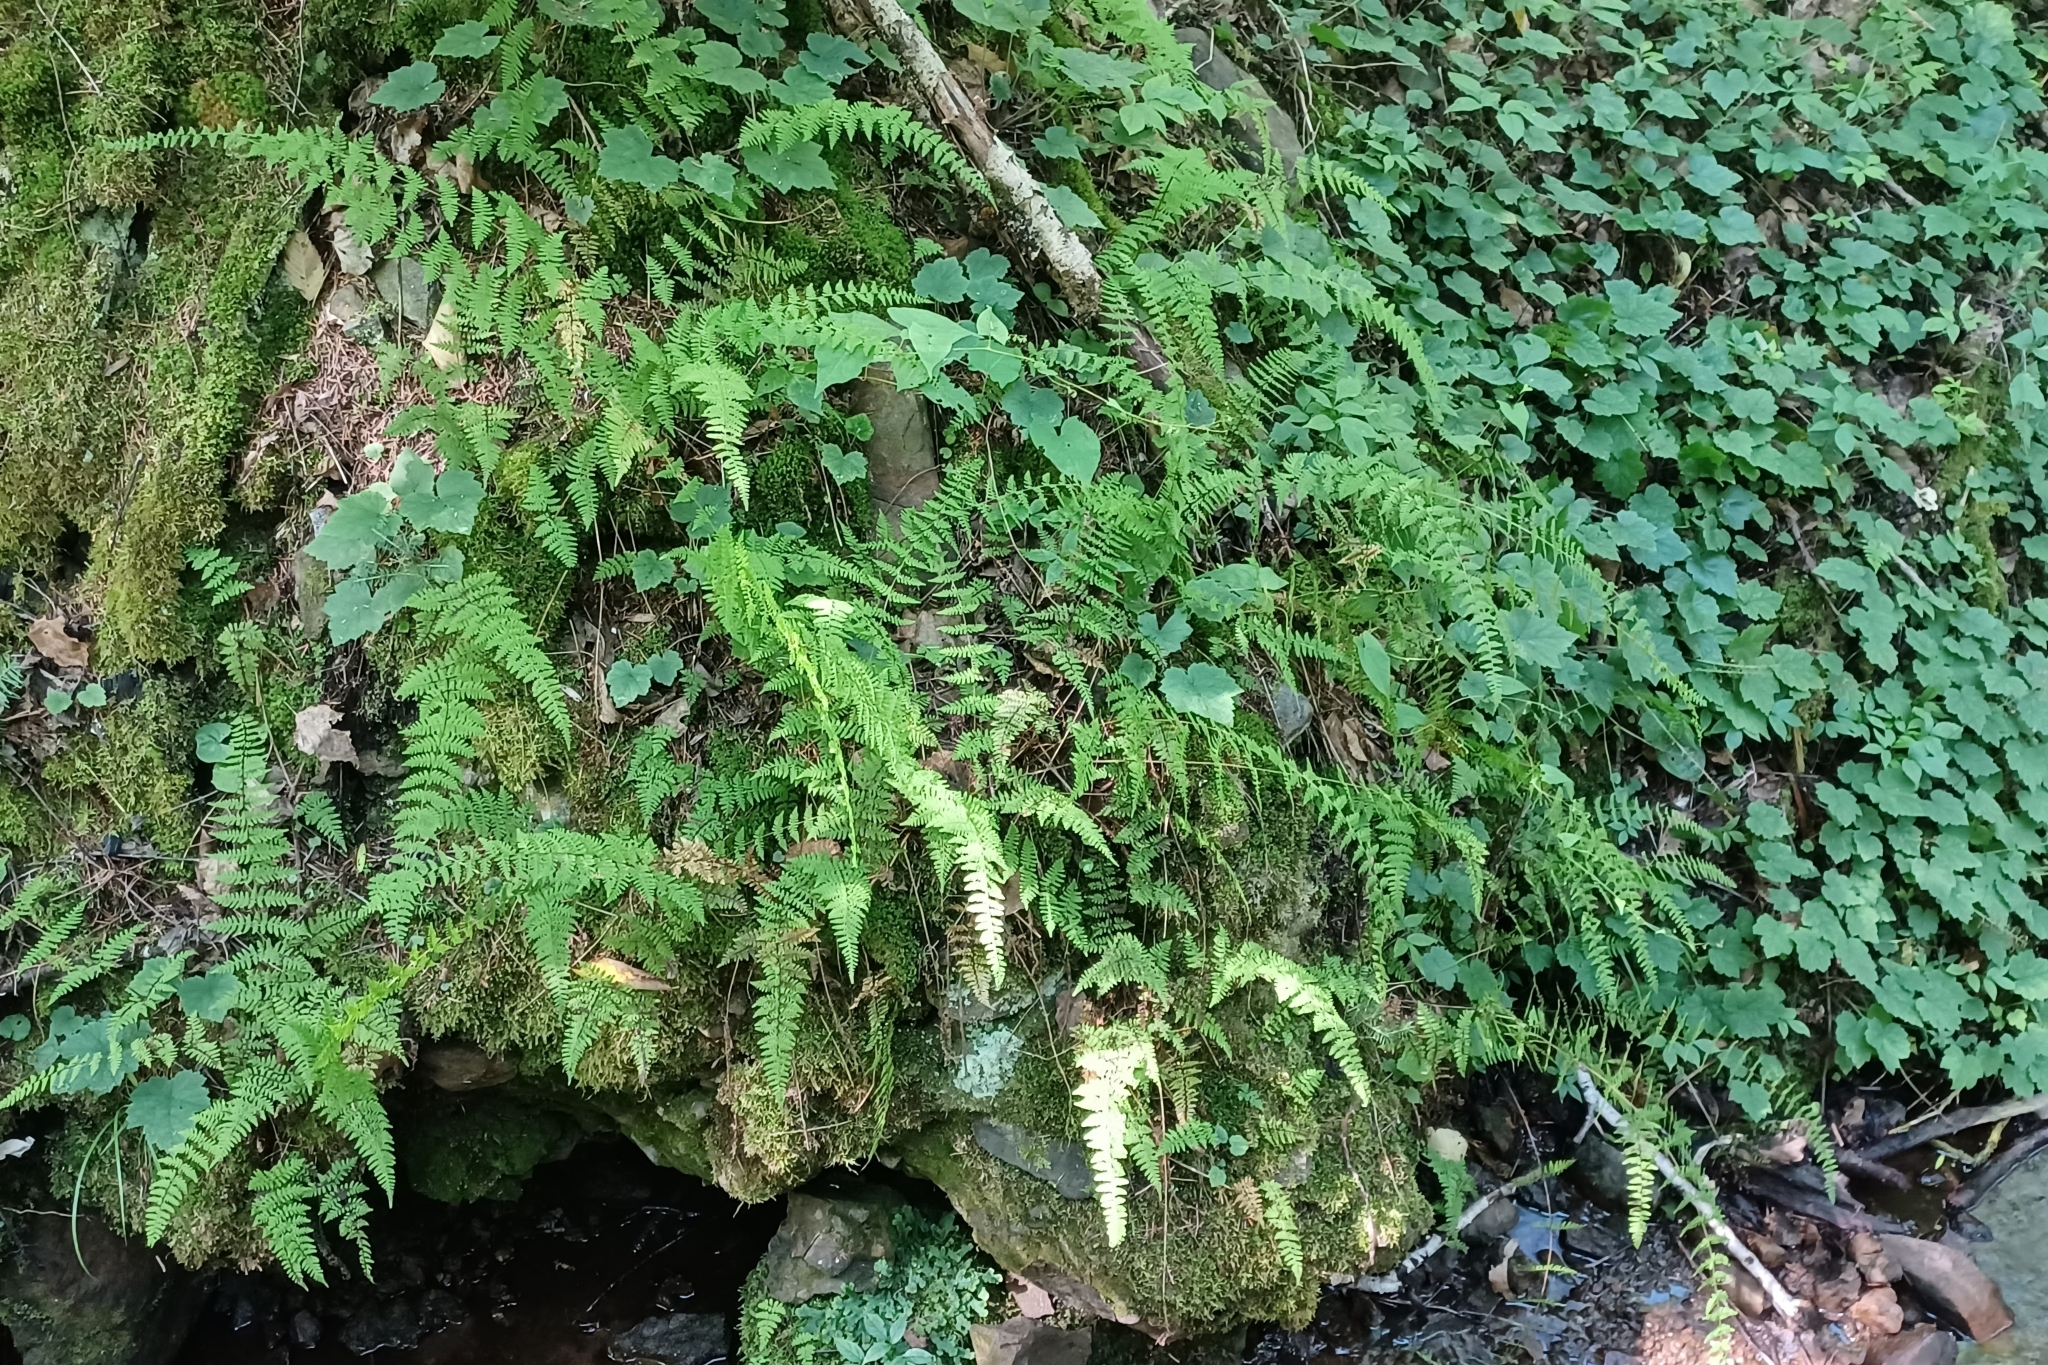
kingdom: Plantae
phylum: Tracheophyta
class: Polypodiopsida
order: Polypodiales
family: Cystopteridaceae
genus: Cystopteris
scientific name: Cystopteris bulbifera
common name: Bulblet bladder fern
